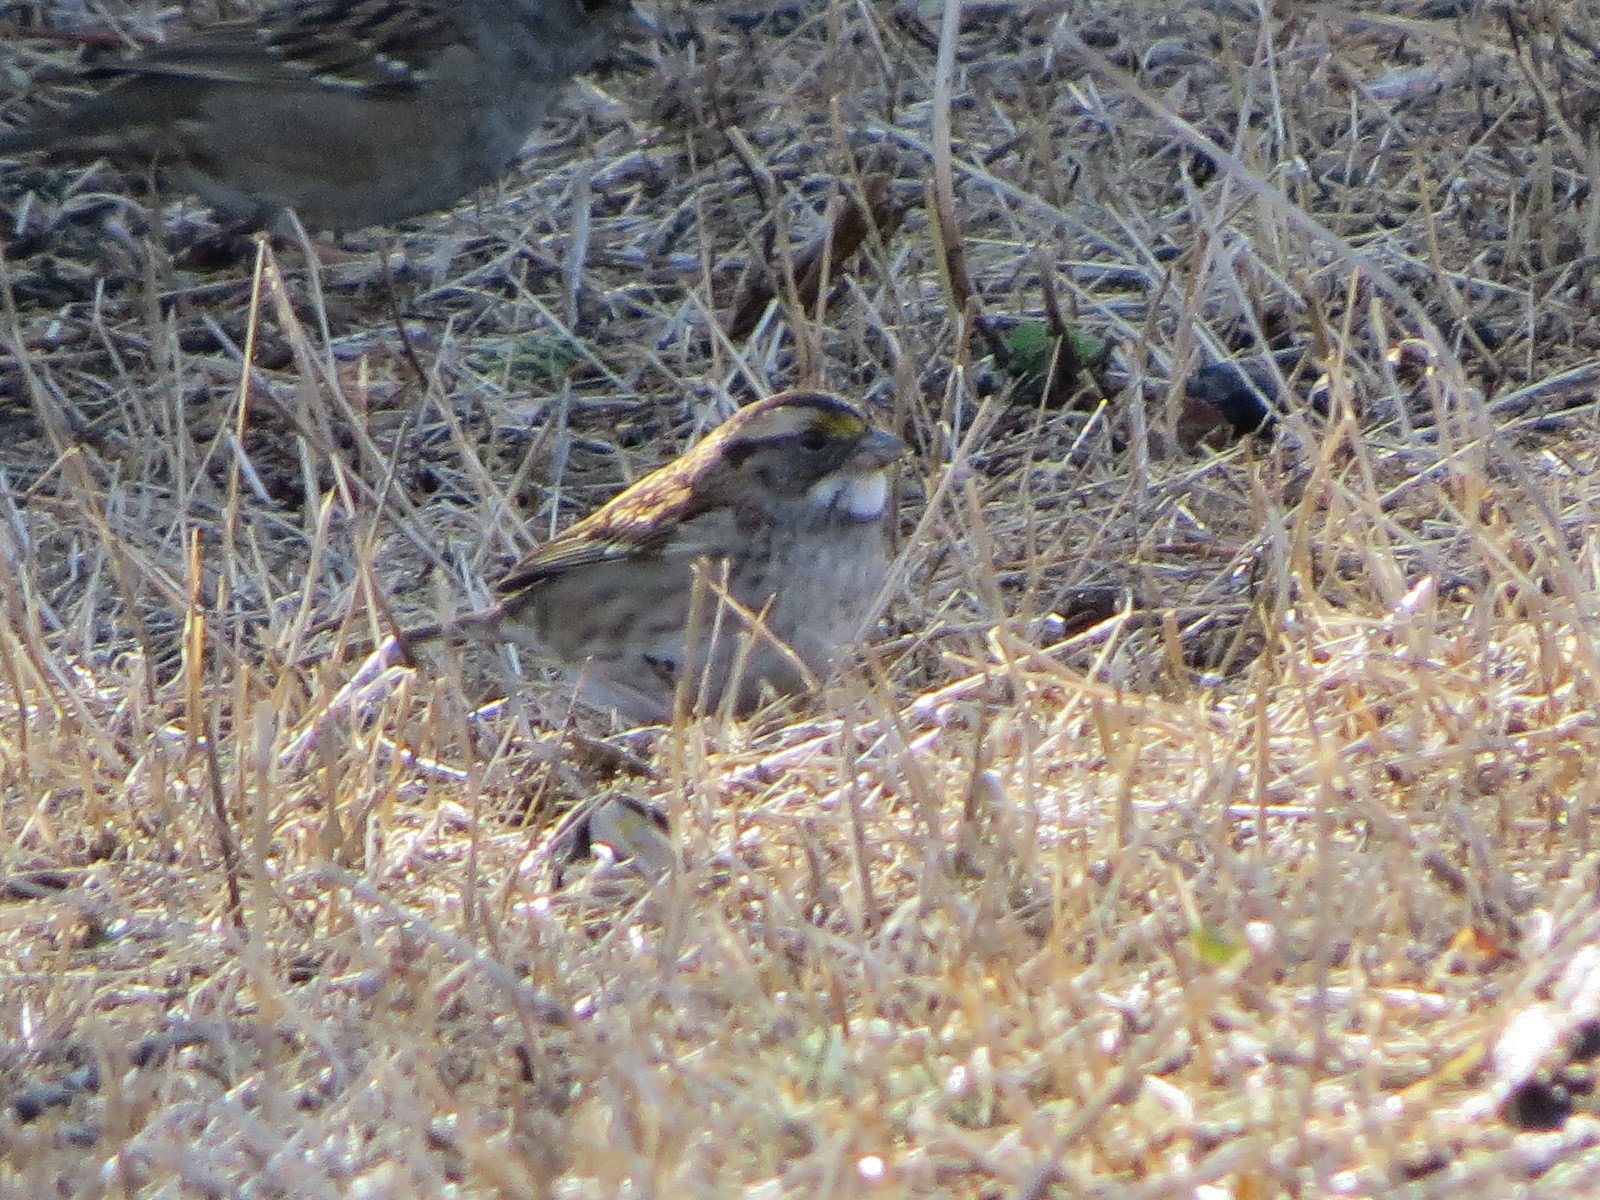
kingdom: Animalia
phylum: Chordata
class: Aves
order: Passeriformes
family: Passerellidae
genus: Zonotrichia
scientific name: Zonotrichia albicollis
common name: White-throated sparrow
